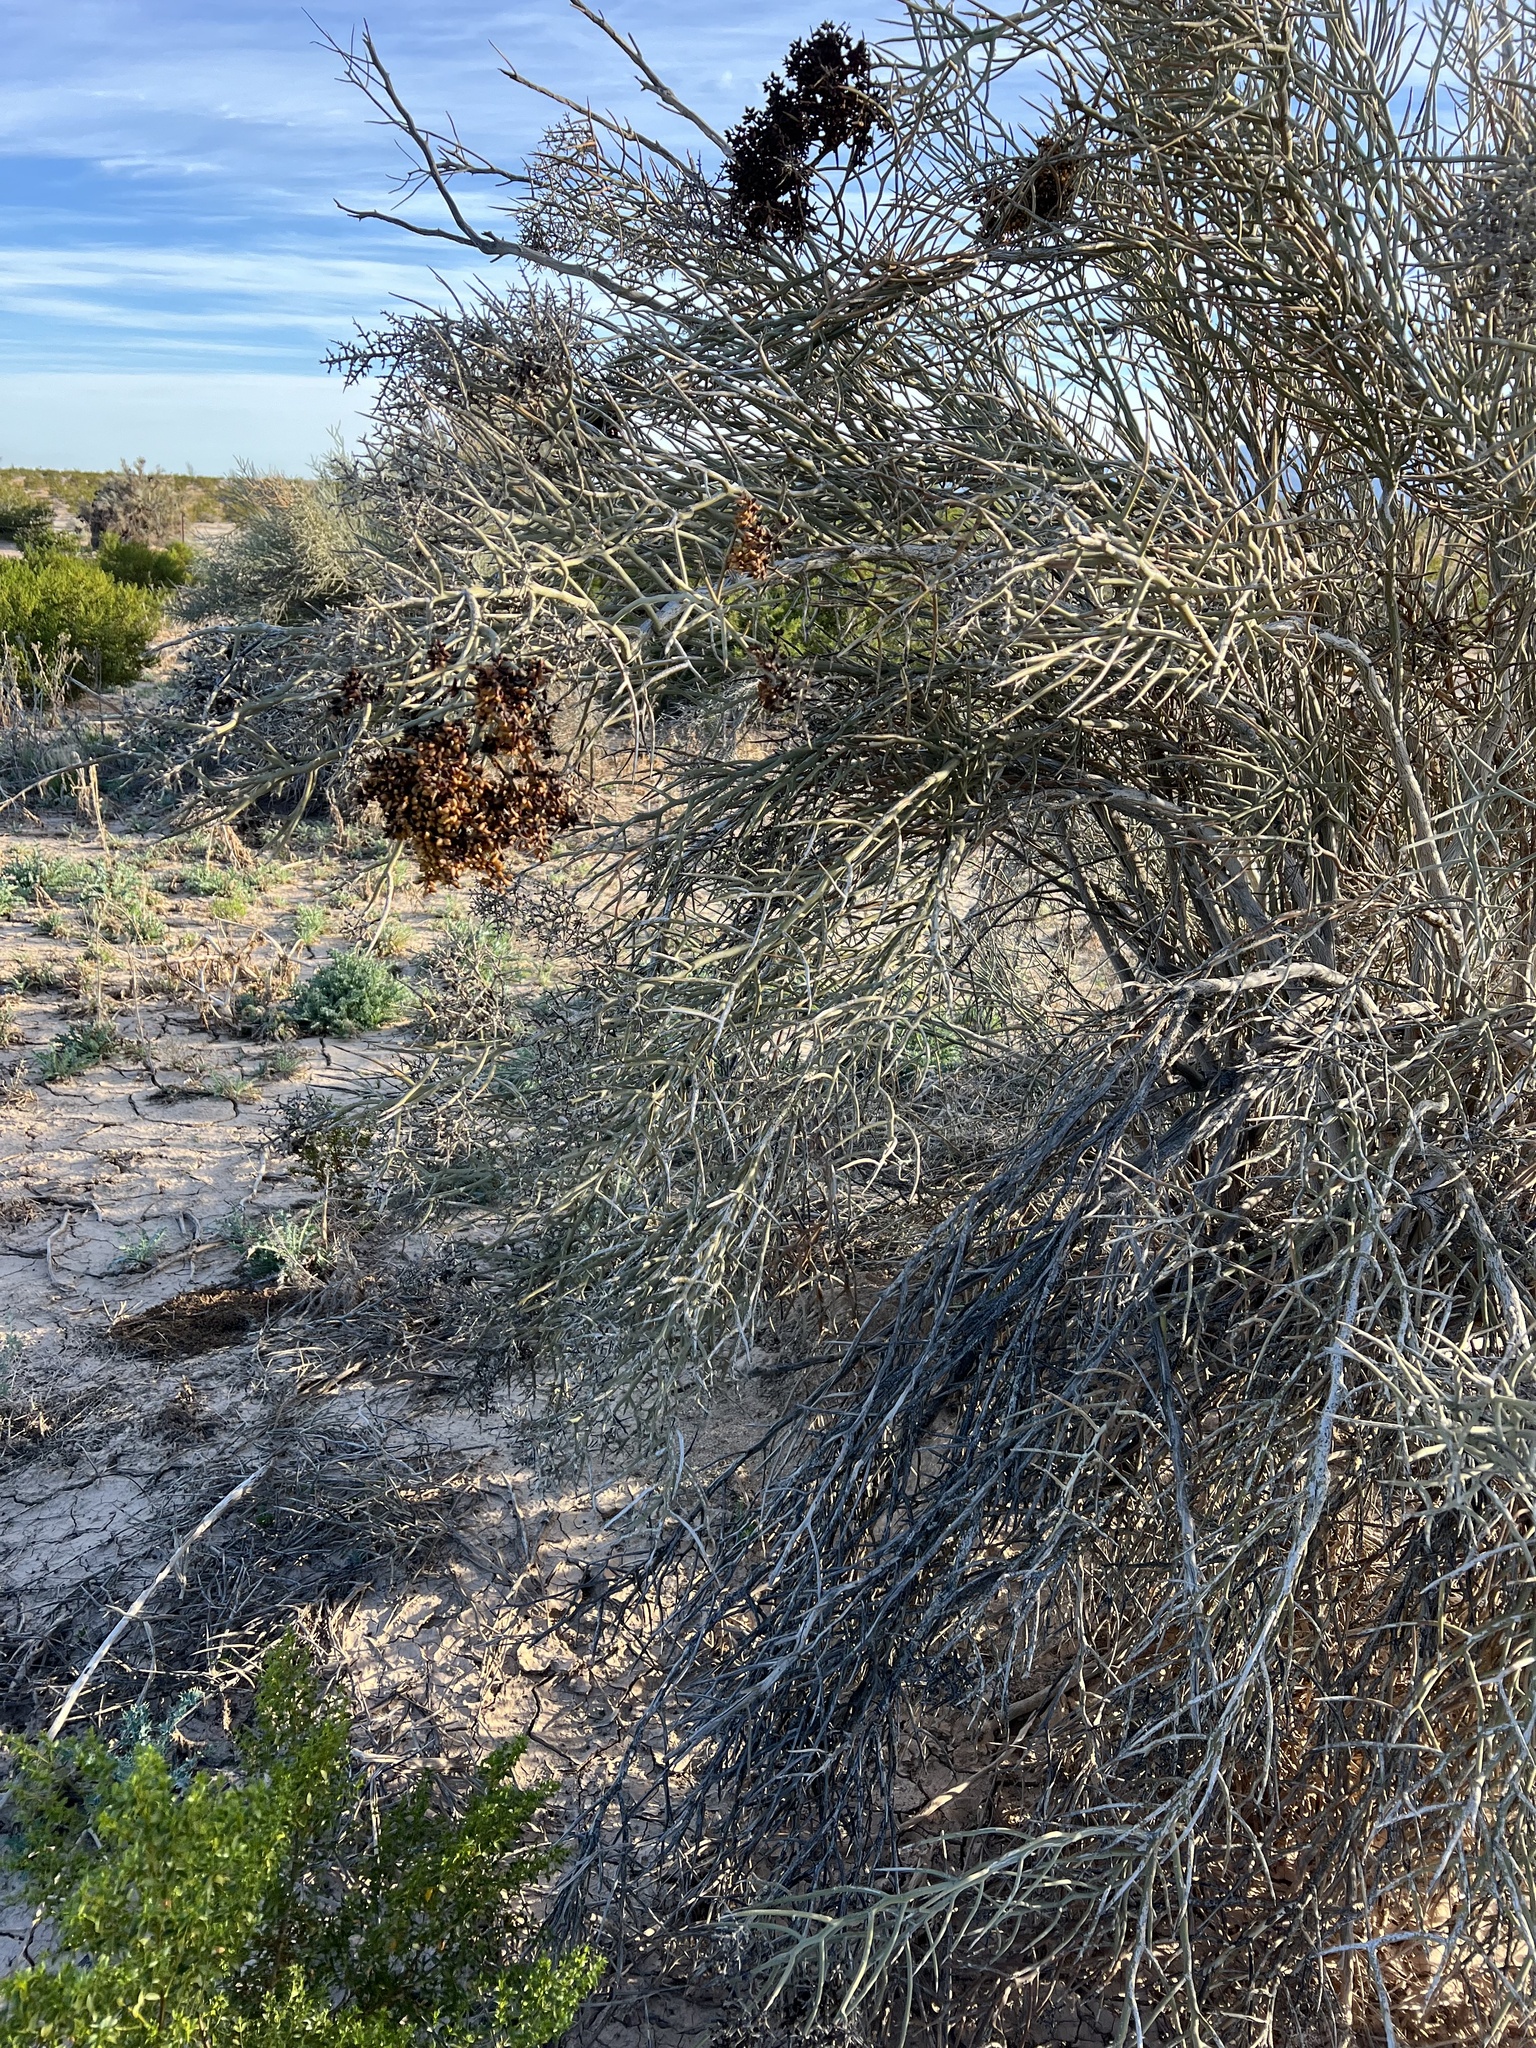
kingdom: Plantae
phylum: Tracheophyta
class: Magnoliopsida
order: Sapindales
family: Simaroubaceae
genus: Holacantha
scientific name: Holacantha emoryi
